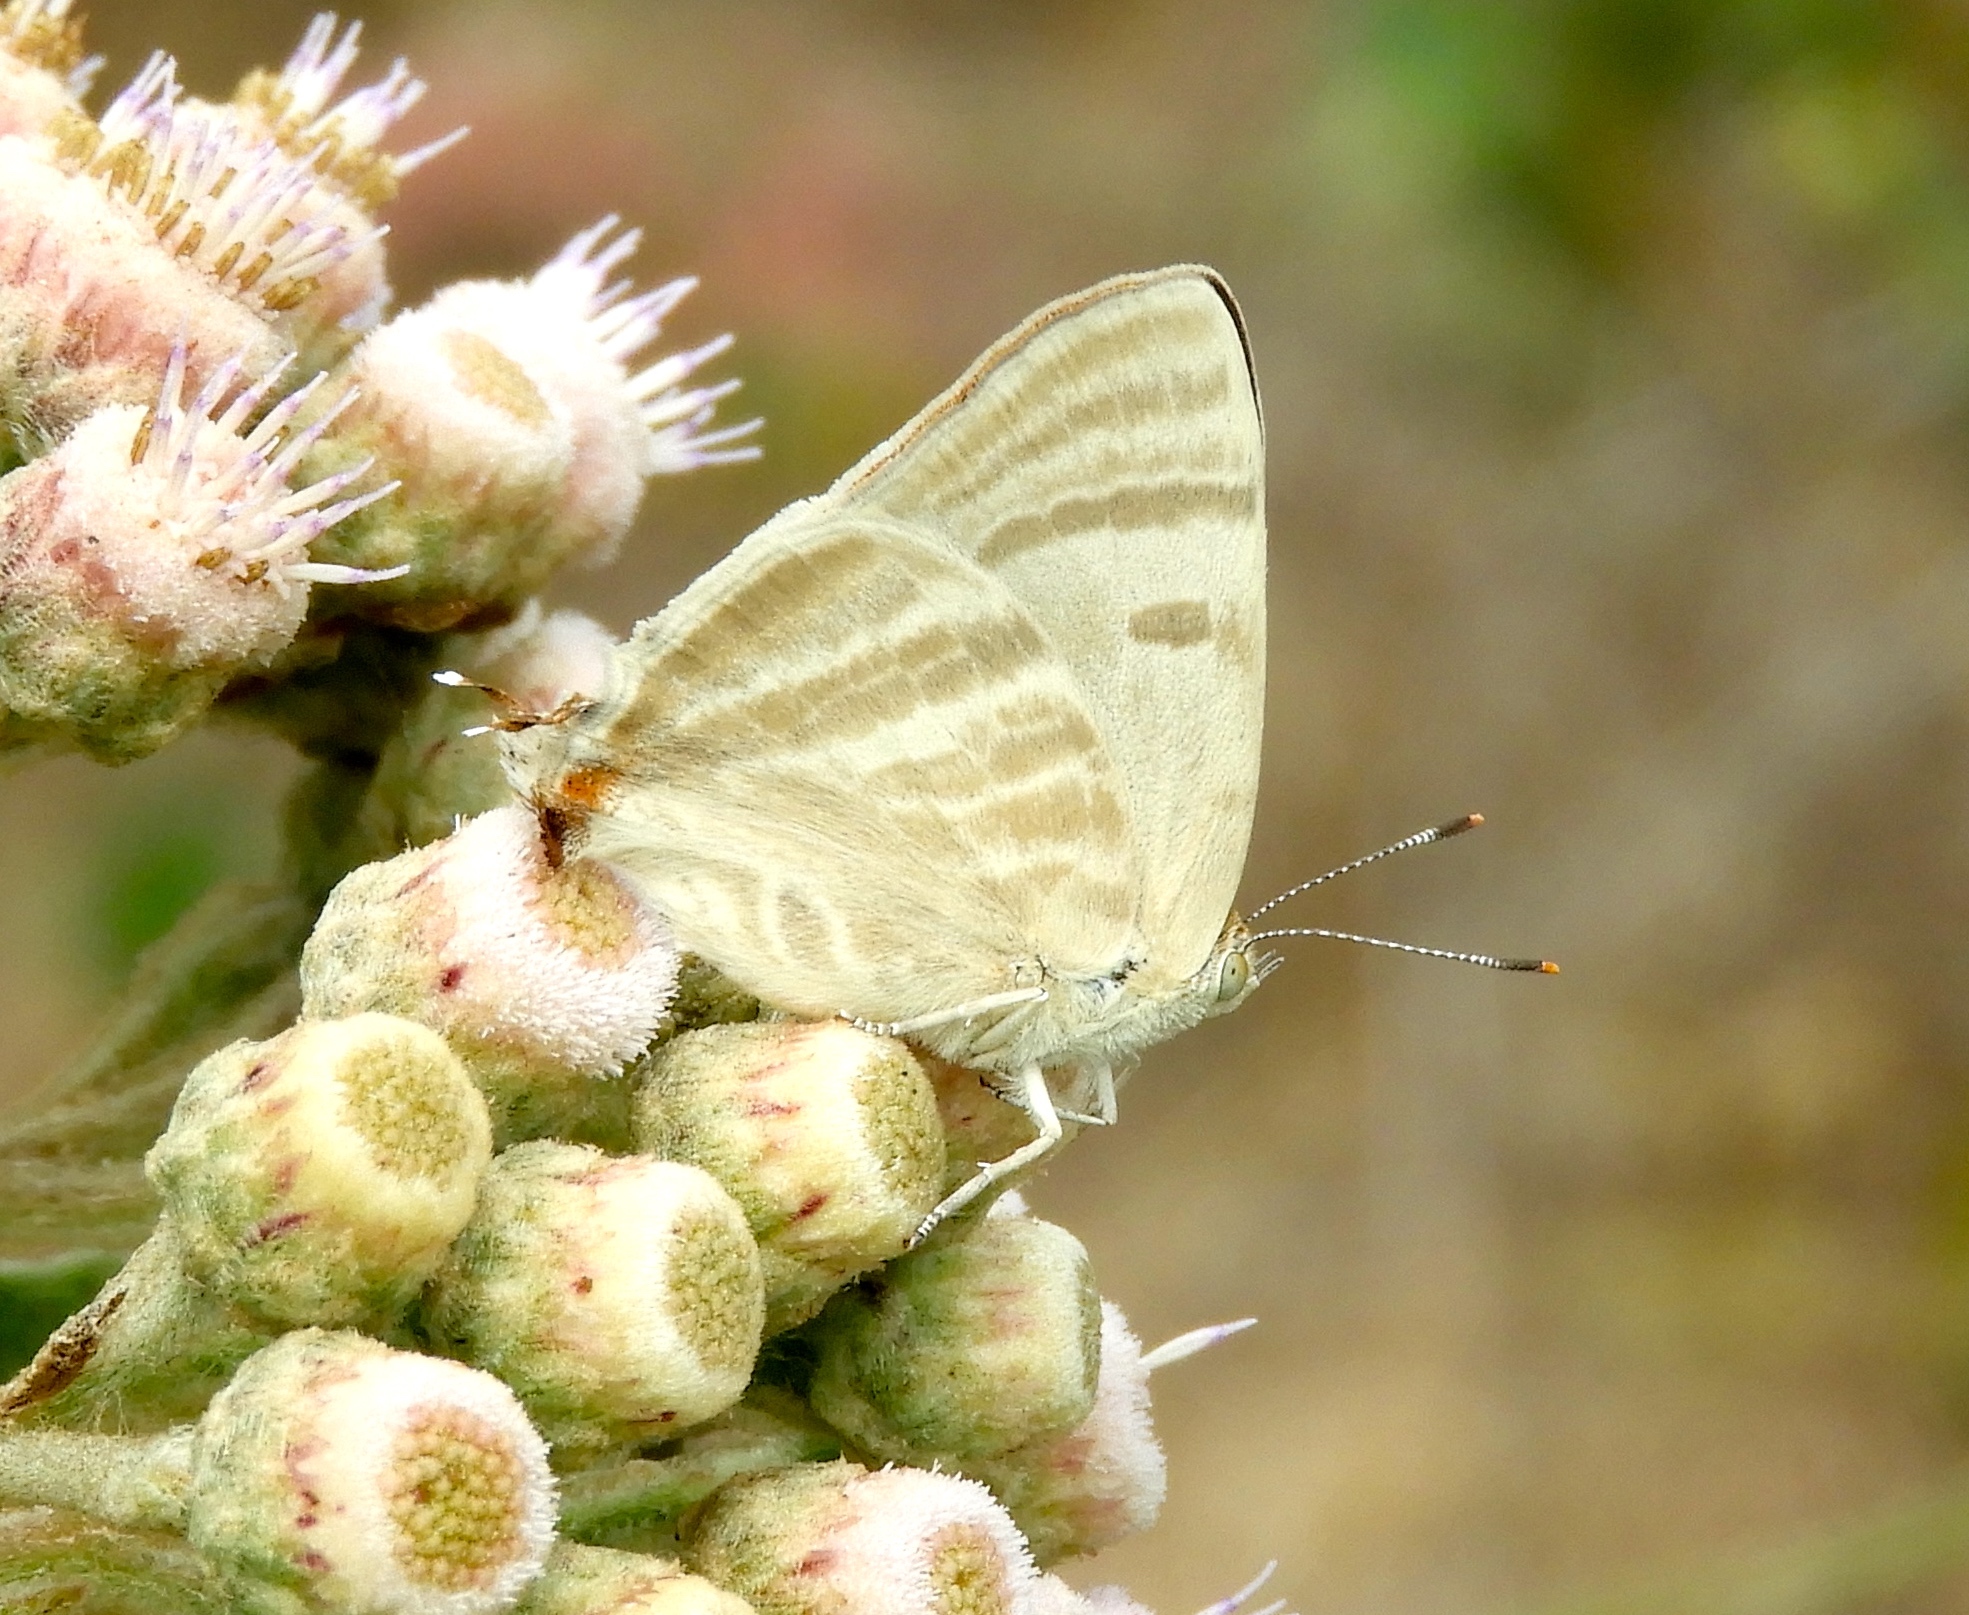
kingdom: Animalia
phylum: Arthropoda
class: Insecta
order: Lepidoptera
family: Lycaenidae
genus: Dolymorpha
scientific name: Dolymorpha jada
